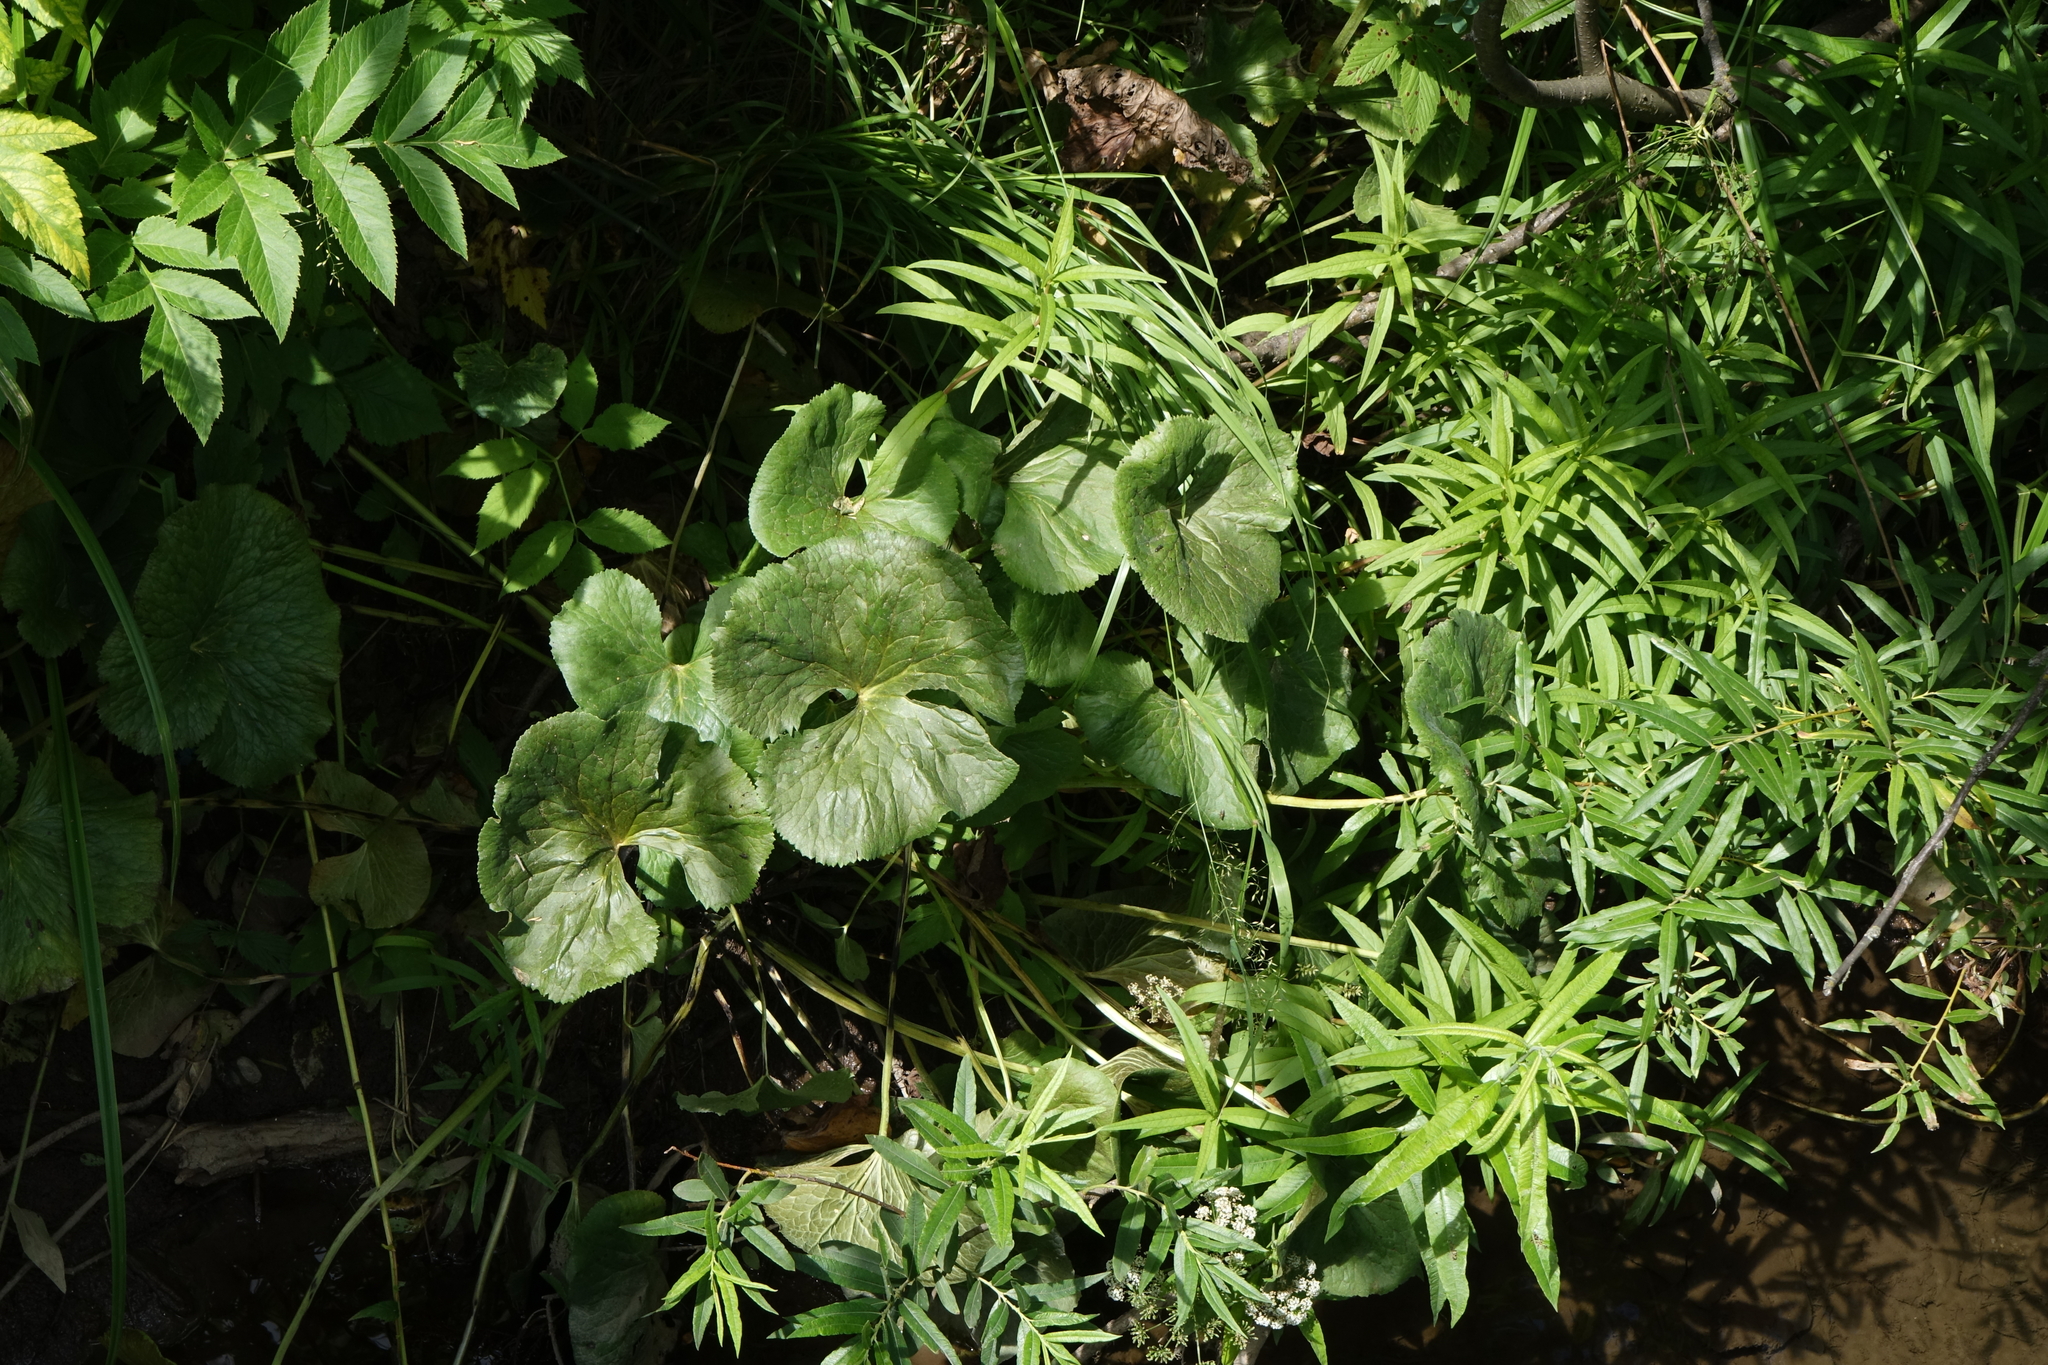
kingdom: Plantae
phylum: Tracheophyta
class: Magnoliopsida
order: Ranunculales
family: Ranunculaceae
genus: Caltha
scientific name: Caltha palustris
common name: Marsh marigold
